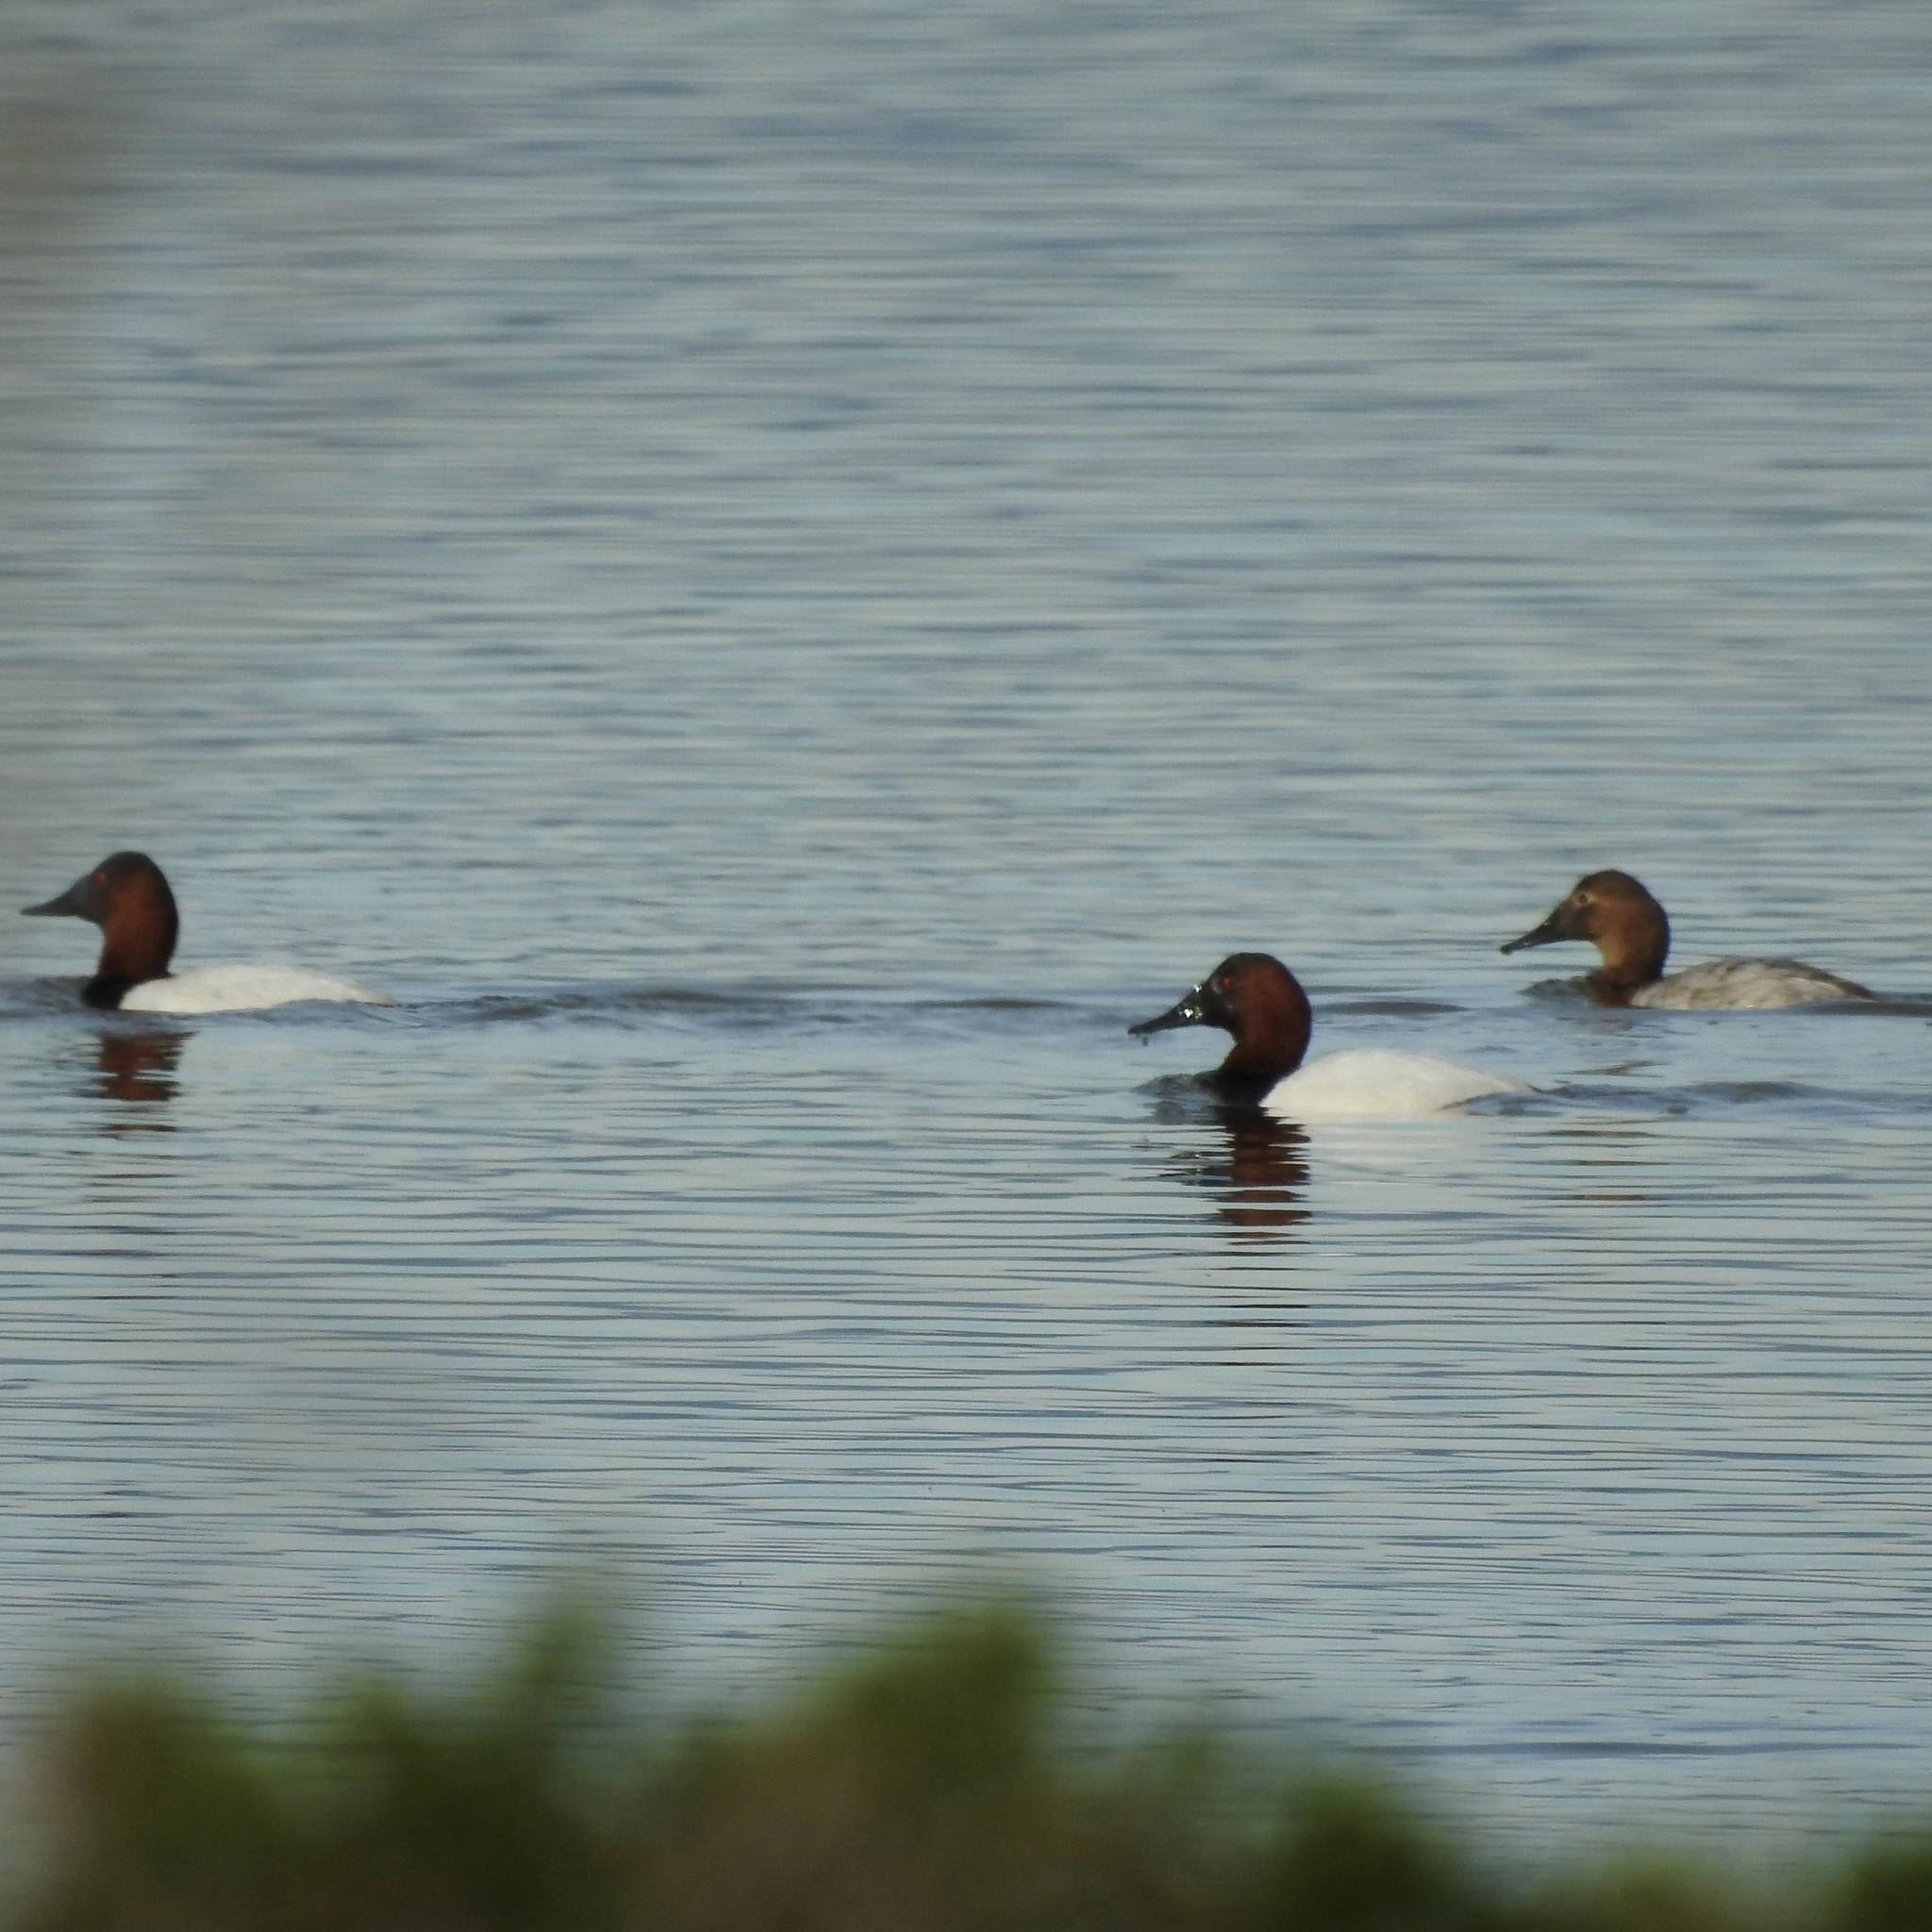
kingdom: Animalia
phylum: Chordata
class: Aves
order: Anseriformes
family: Anatidae
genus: Aythya
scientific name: Aythya valisineria
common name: Canvasback
